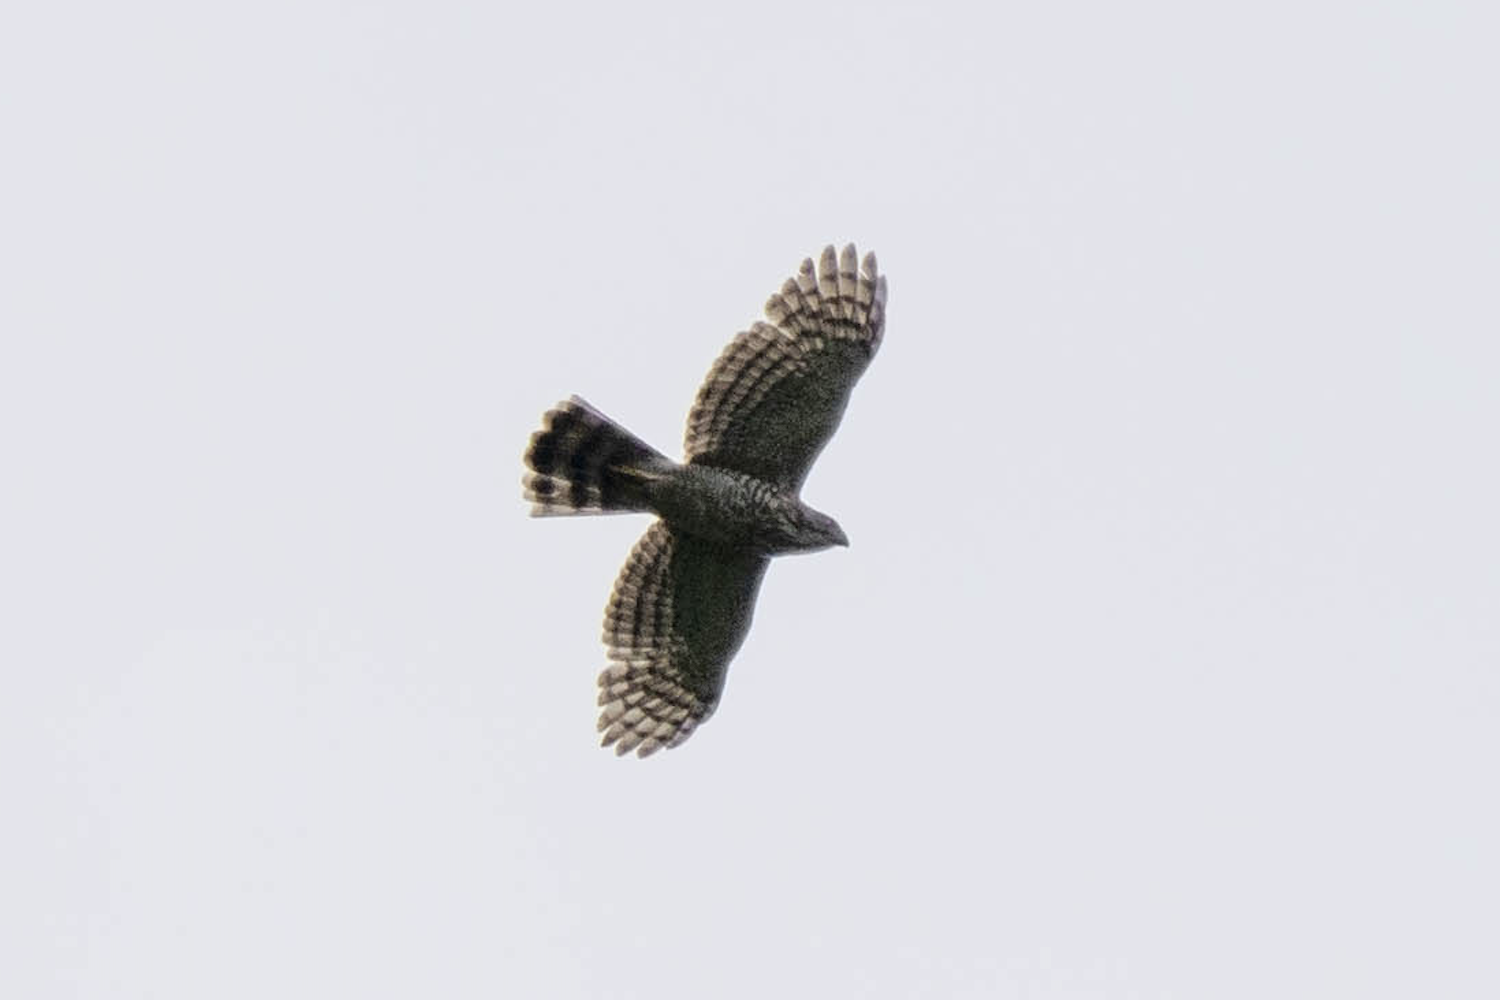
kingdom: Animalia
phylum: Chordata
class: Aves
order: Accipitriformes
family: Accipitridae
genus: Accipiter
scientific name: Accipiter trivirgatus
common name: Crested goshawk
